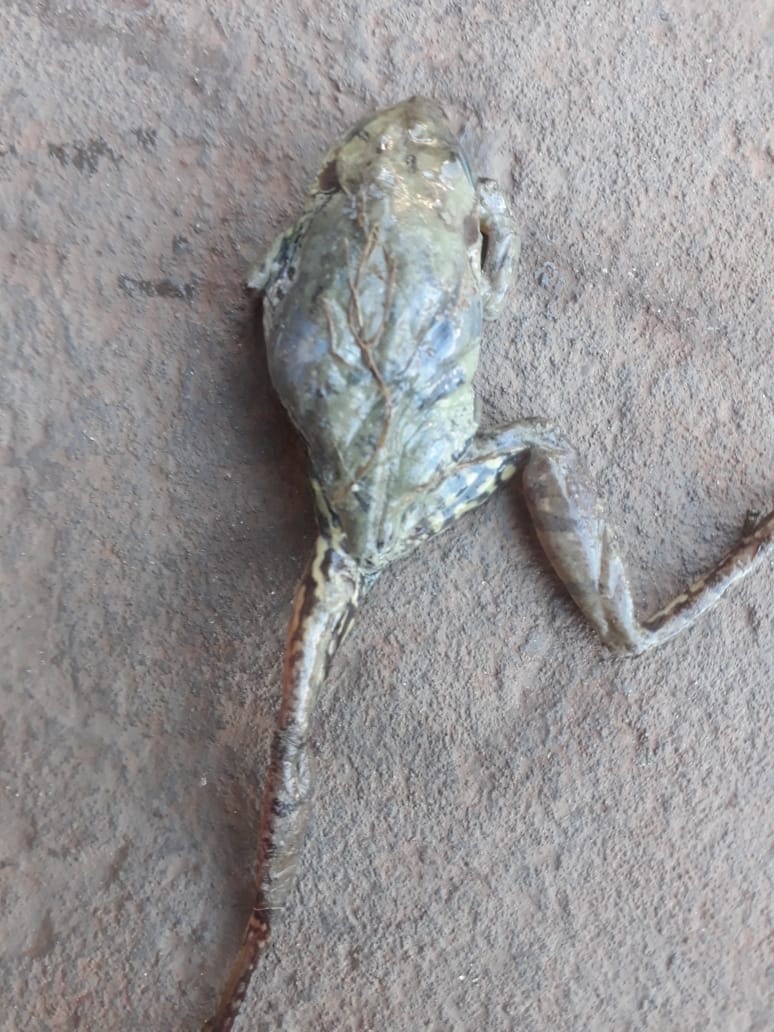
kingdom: Animalia
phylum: Chordata
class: Amphibia
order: Anura
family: Hylidae
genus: Scinax
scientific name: Scinax fuscovarius
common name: Fuscous-blotched treefrog
